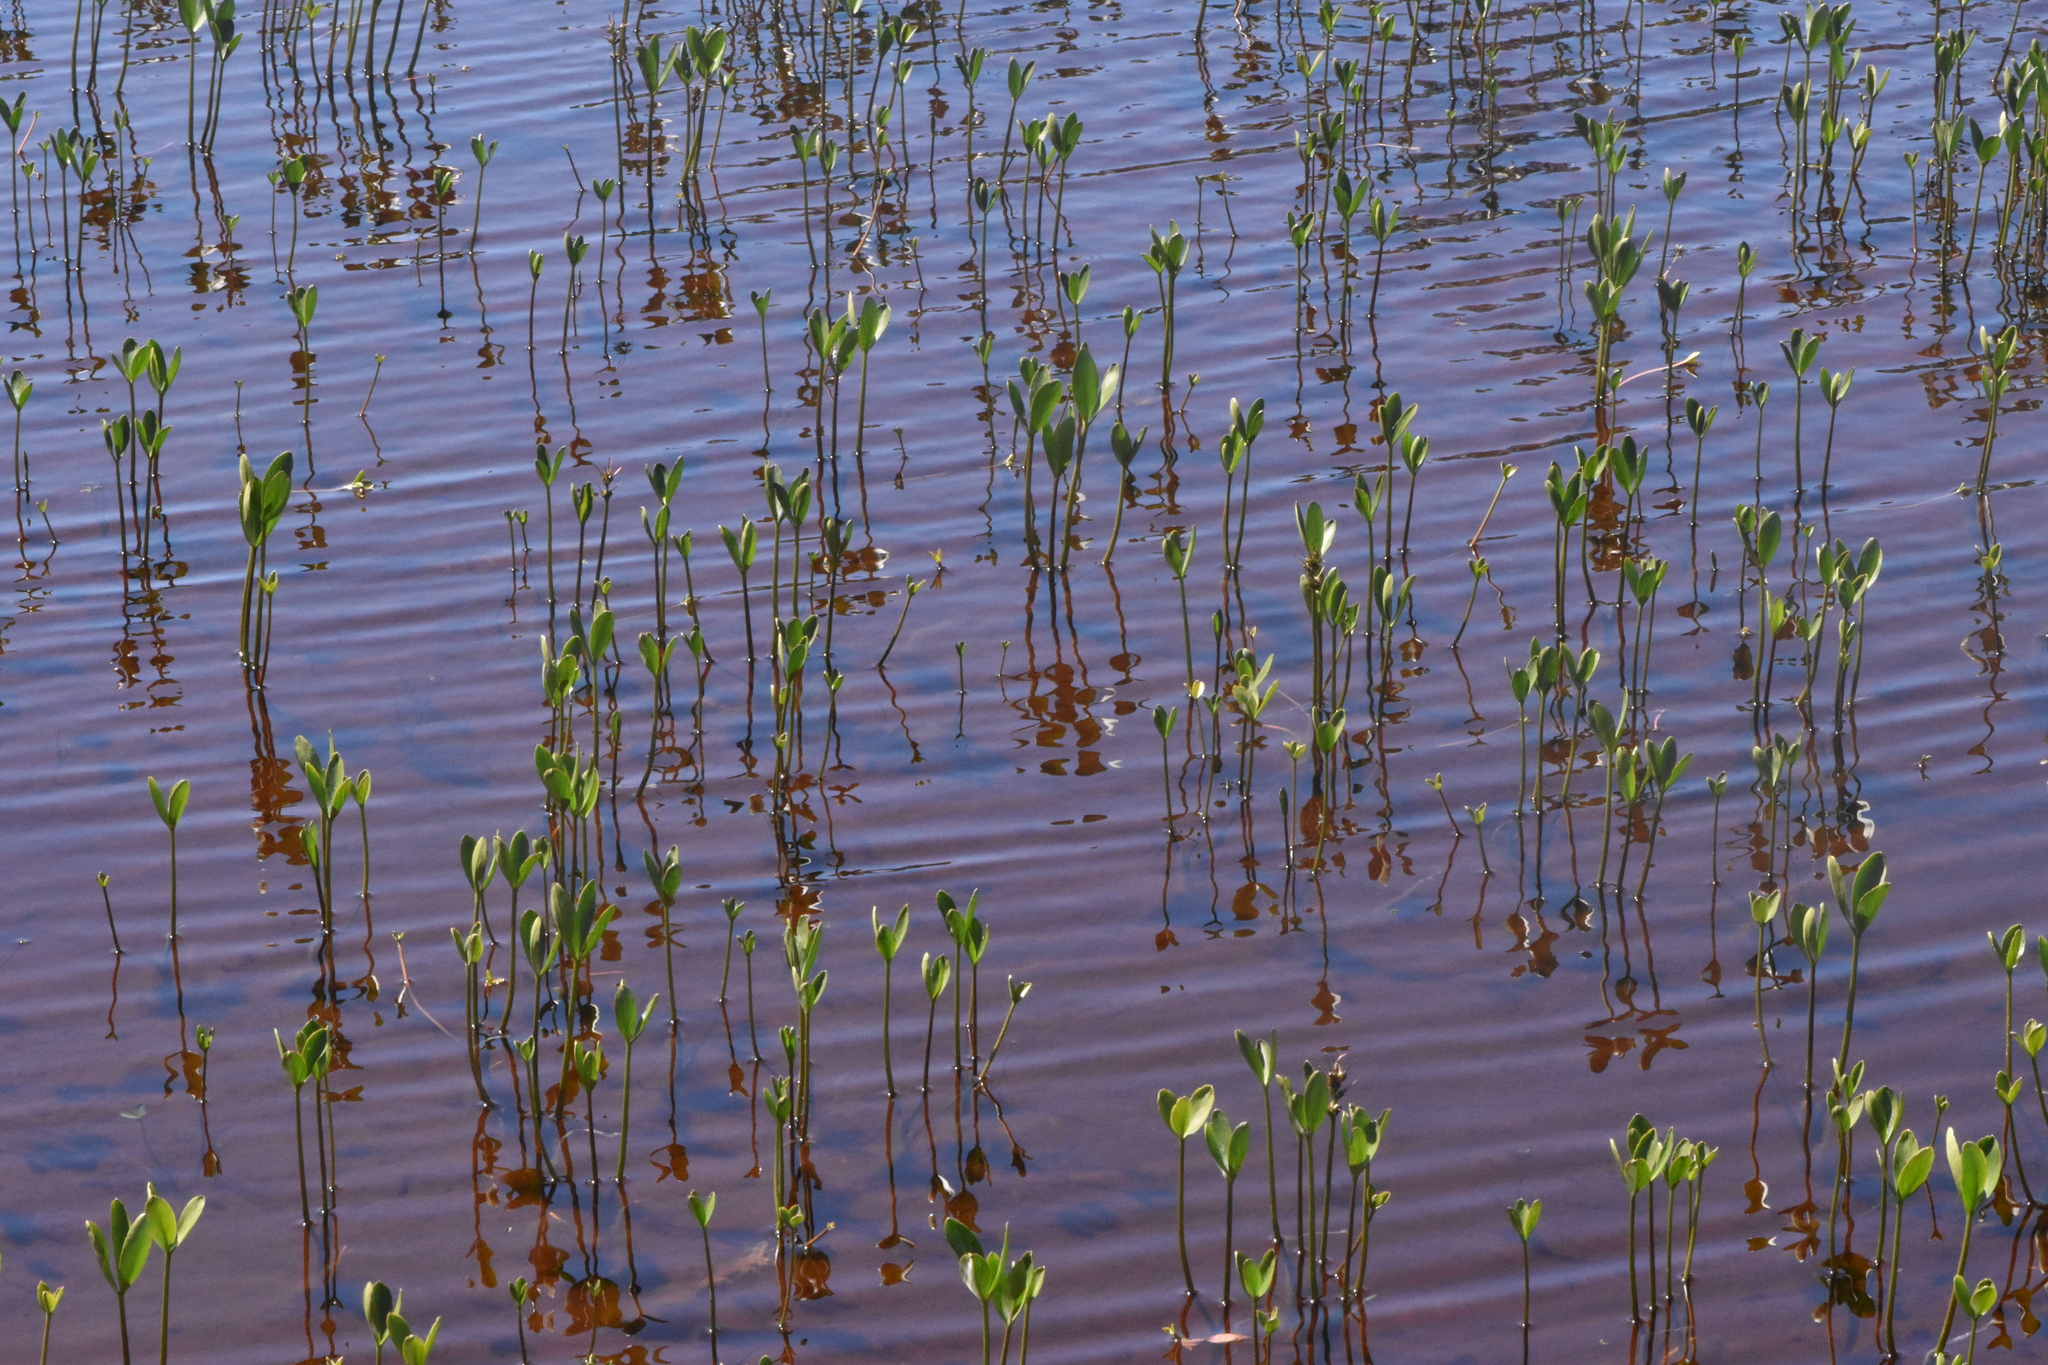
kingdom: Plantae
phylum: Tracheophyta
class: Magnoliopsida
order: Asterales
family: Menyanthaceae
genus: Menyanthes
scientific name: Menyanthes trifoliata
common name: Bogbean
